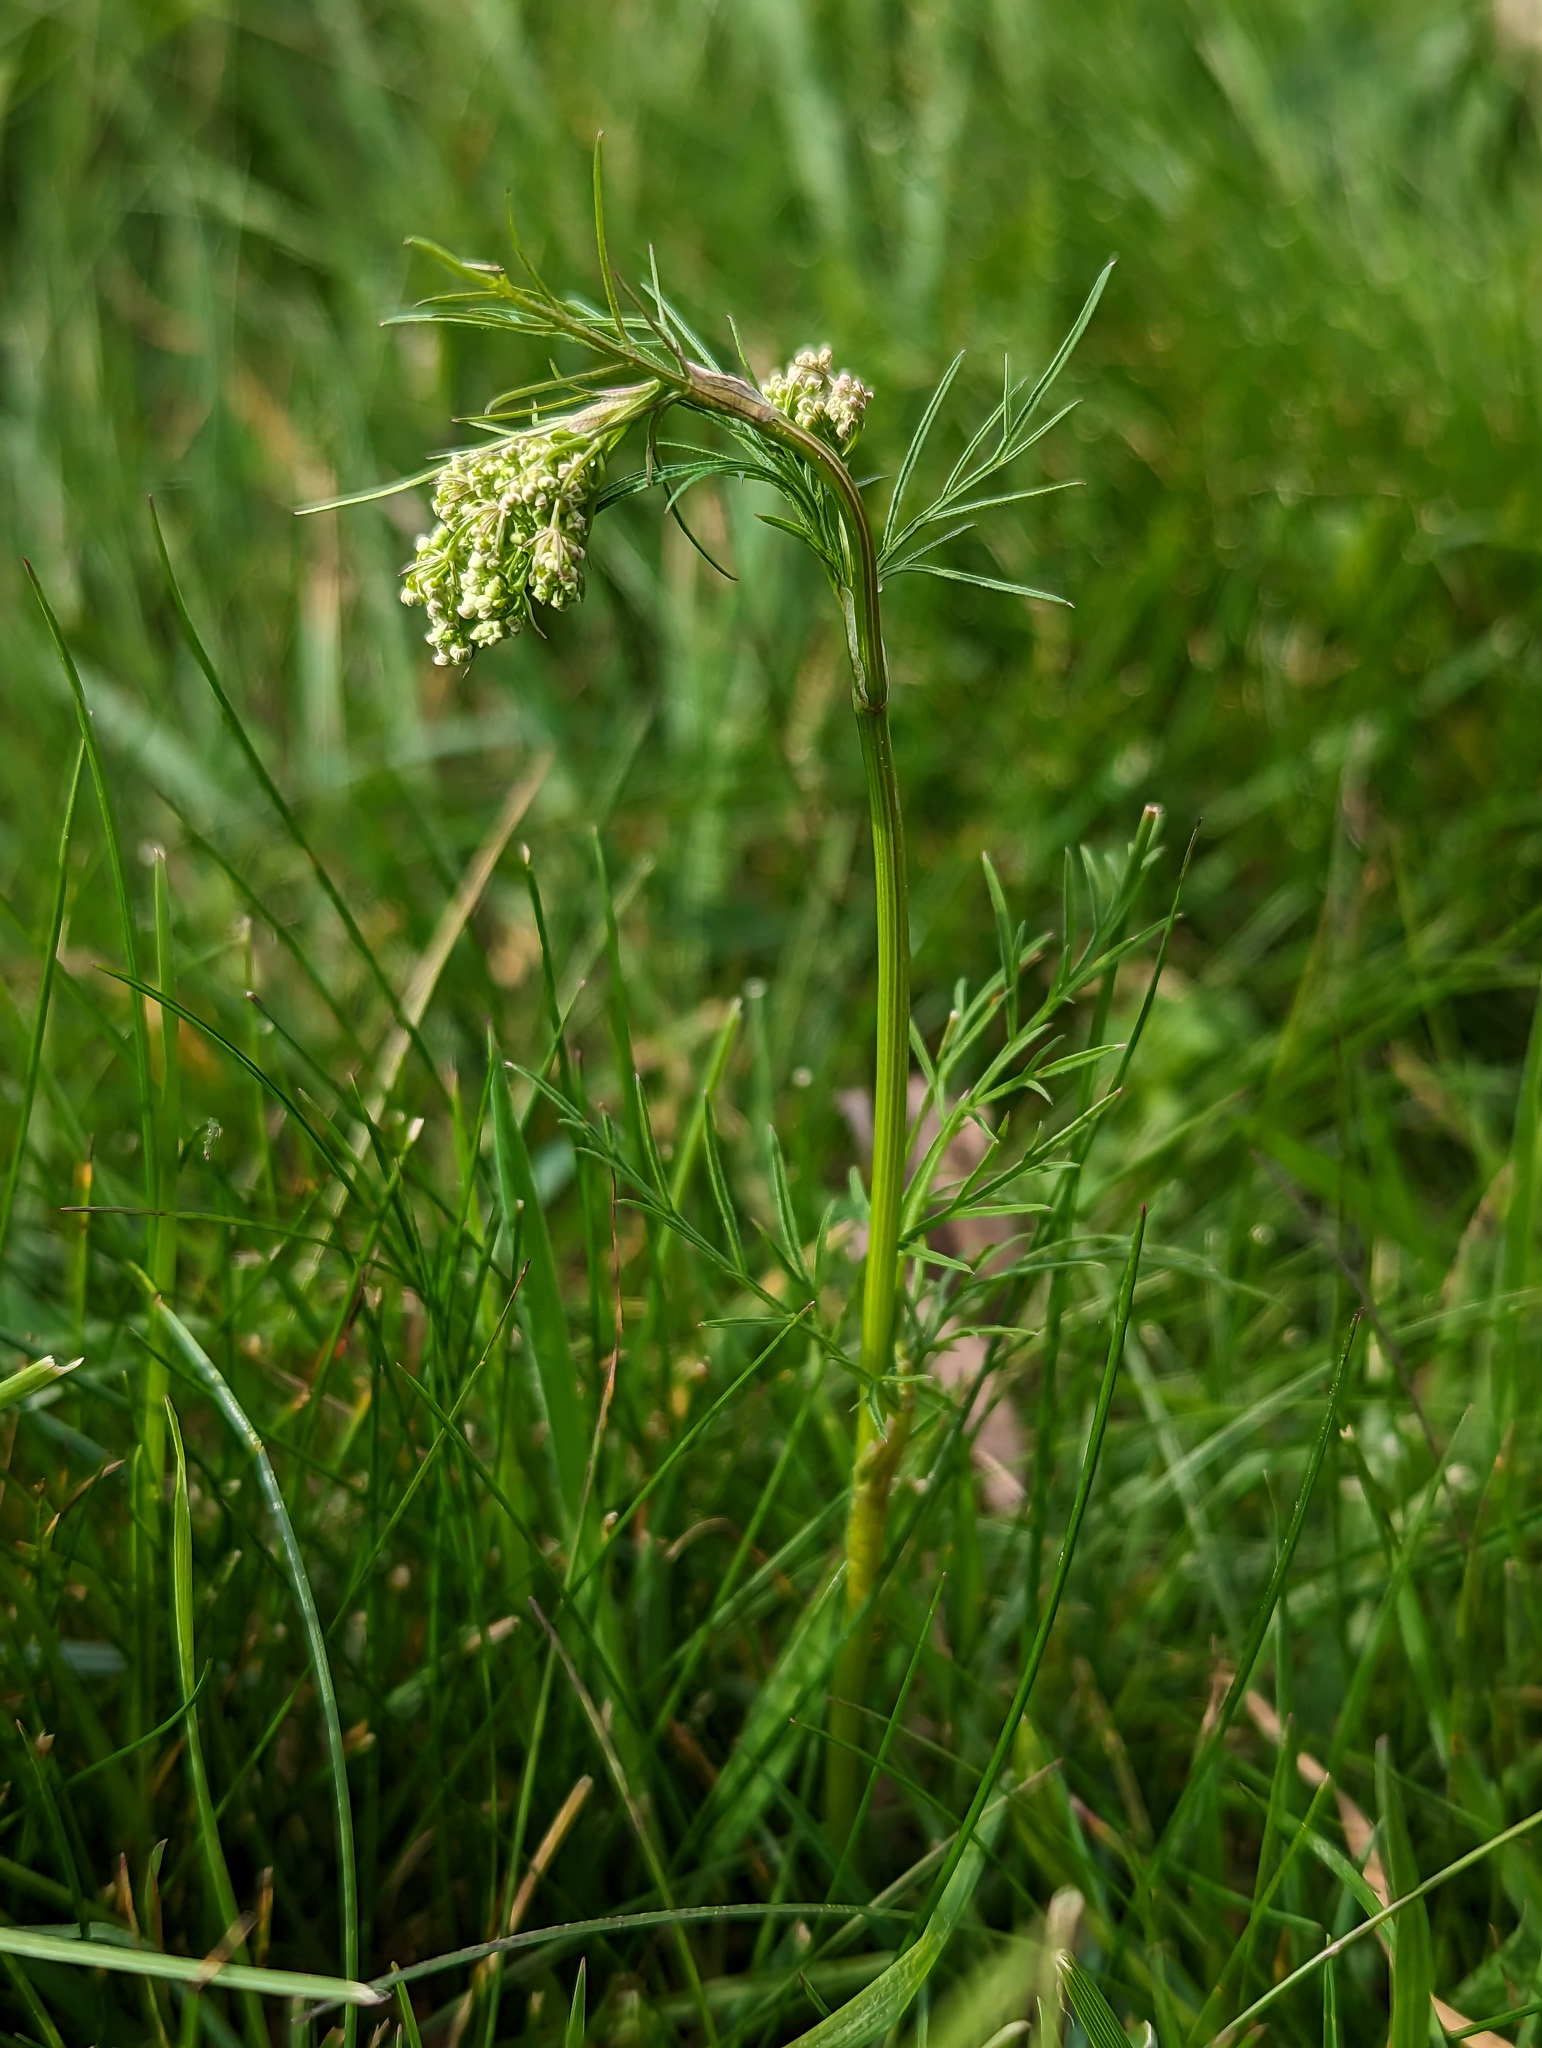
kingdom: Plantae
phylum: Tracheophyta
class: Magnoliopsida
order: Apiales
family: Apiaceae
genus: Conopodium
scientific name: Conopodium majus
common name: Pignut
